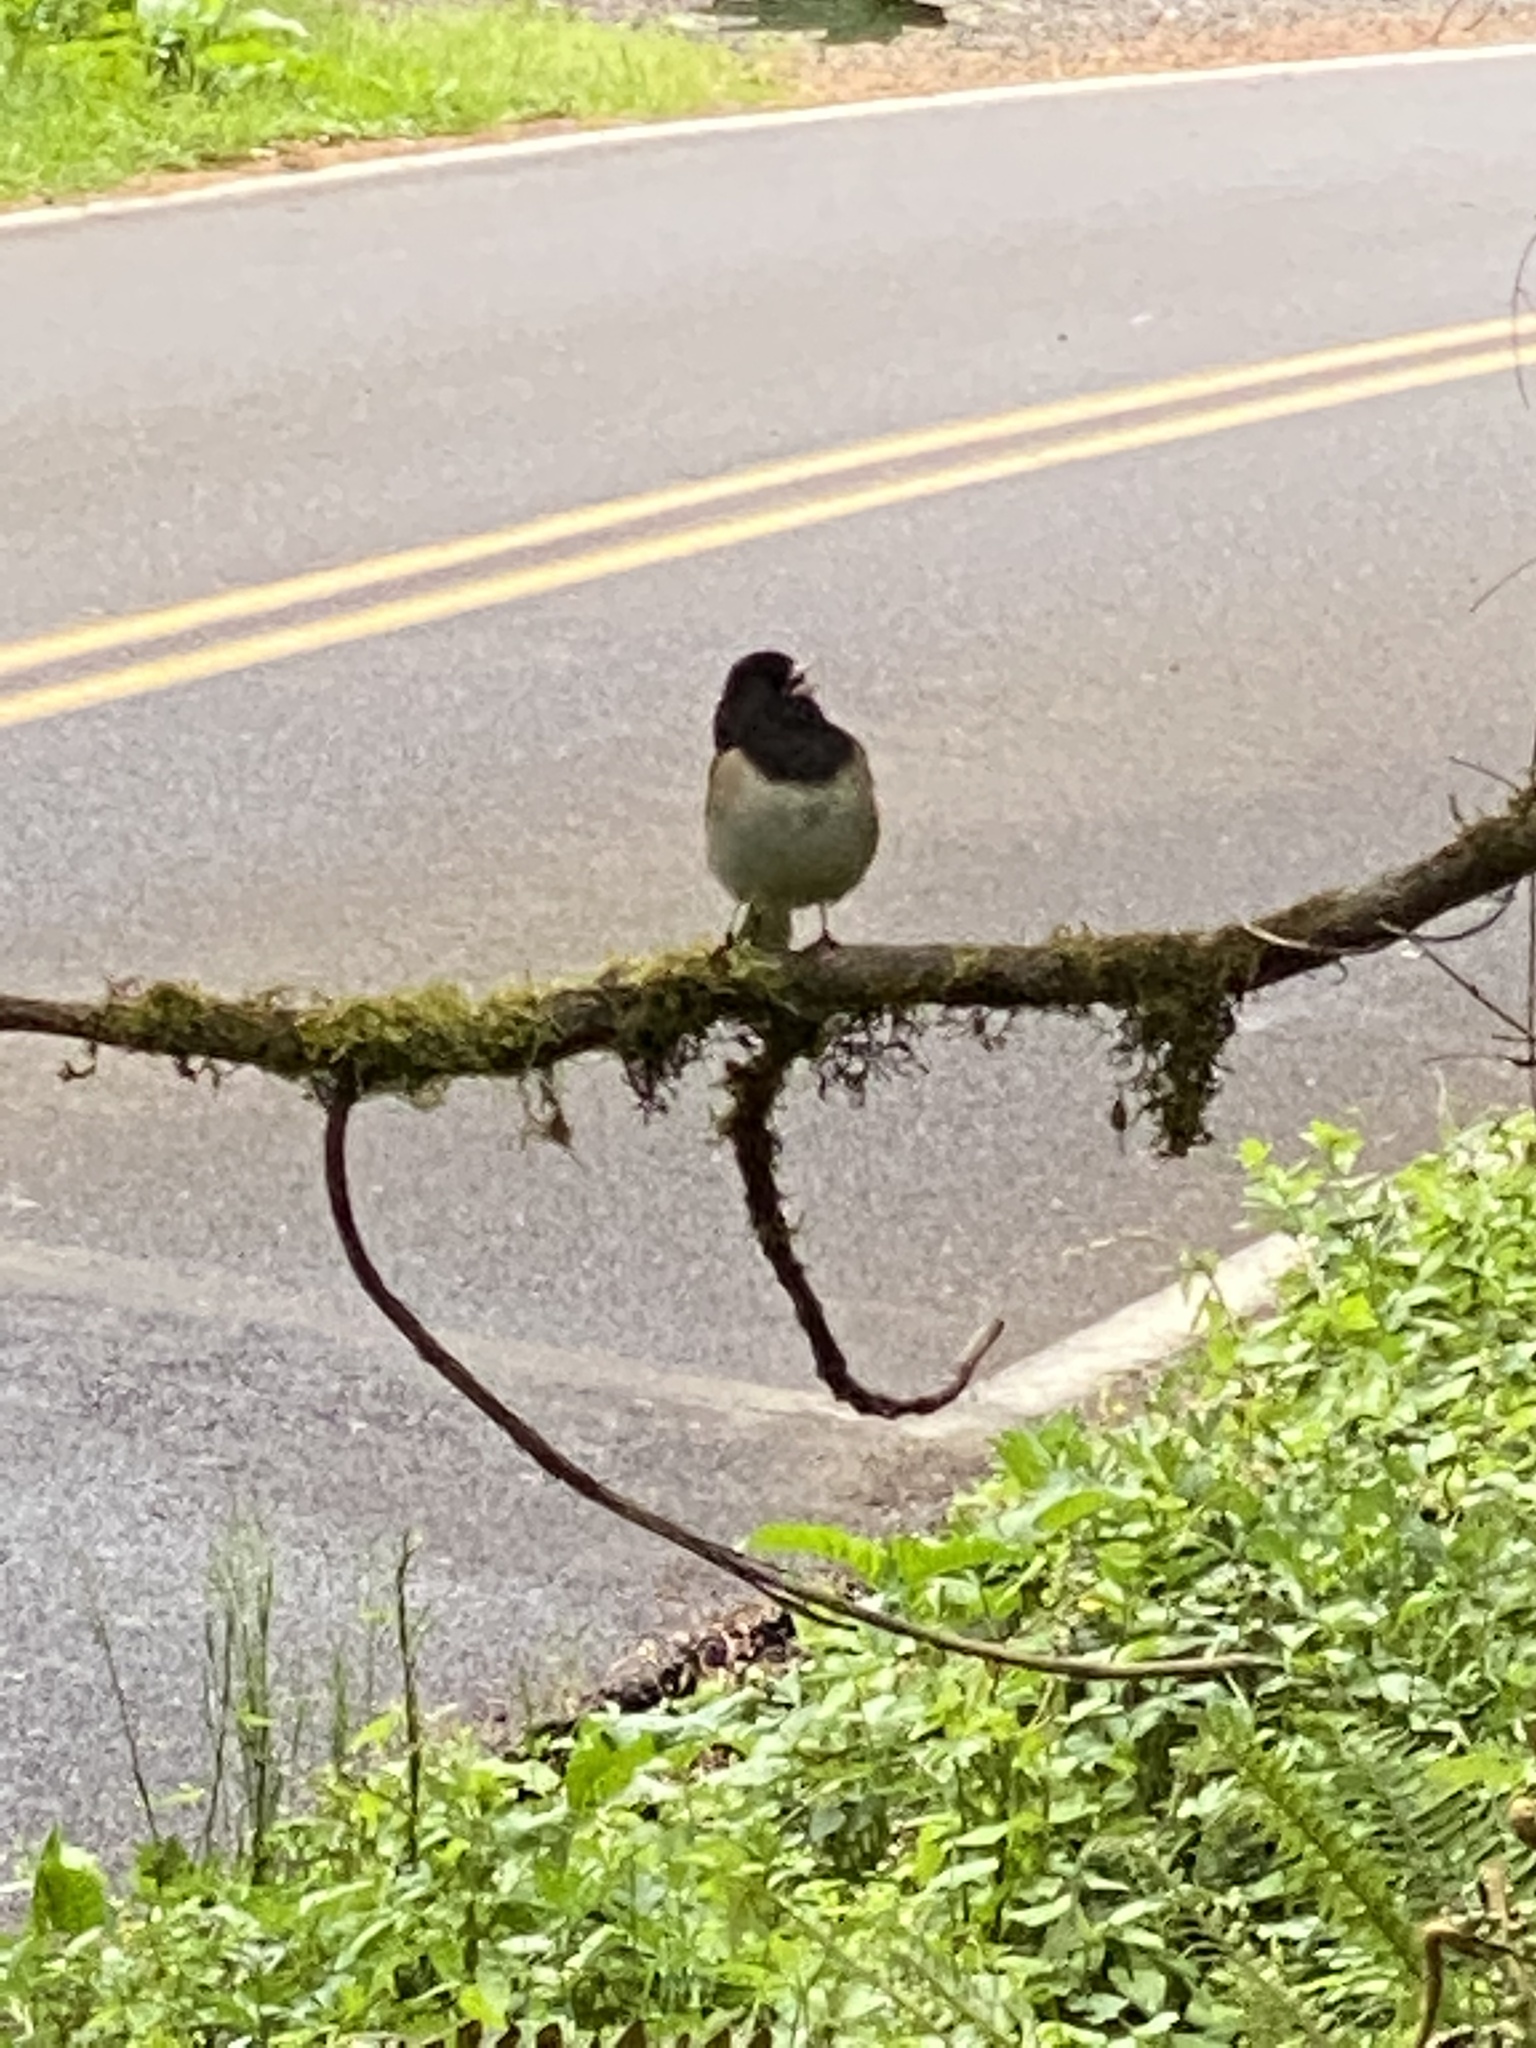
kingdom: Animalia
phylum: Chordata
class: Aves
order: Passeriformes
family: Passerellidae
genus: Junco
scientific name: Junco hyemalis
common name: Dark-eyed junco
